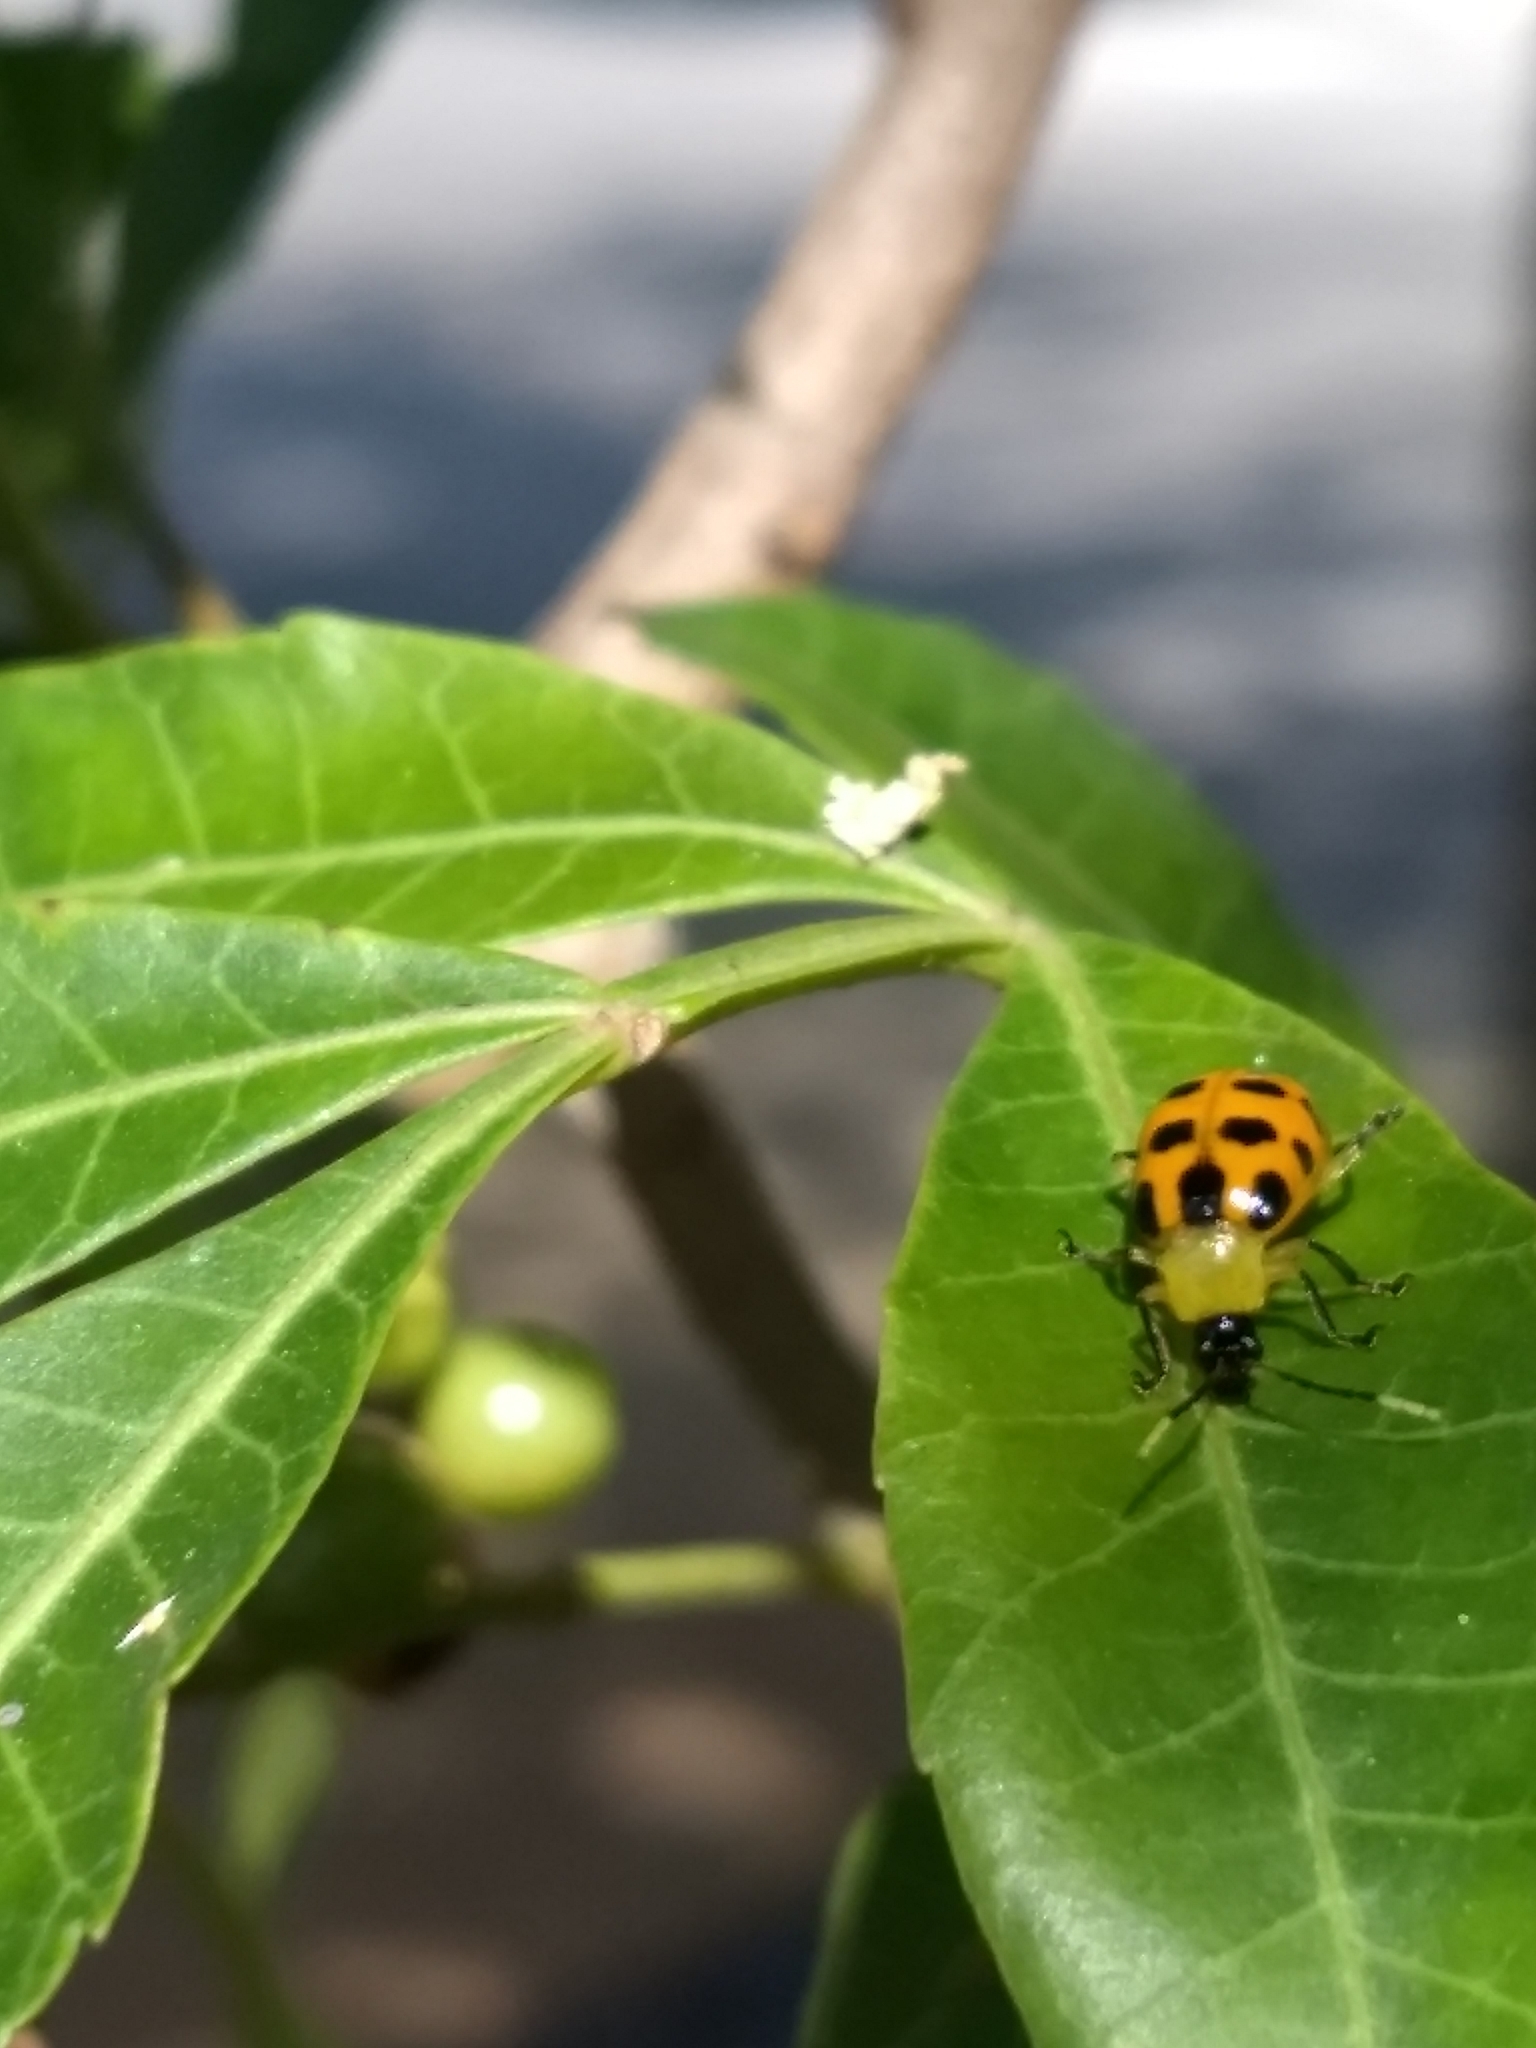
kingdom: Animalia
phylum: Arthropoda
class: Insecta
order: Coleoptera
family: Chrysomelidae
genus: Diabrotica
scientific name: Diabrotica limitata
